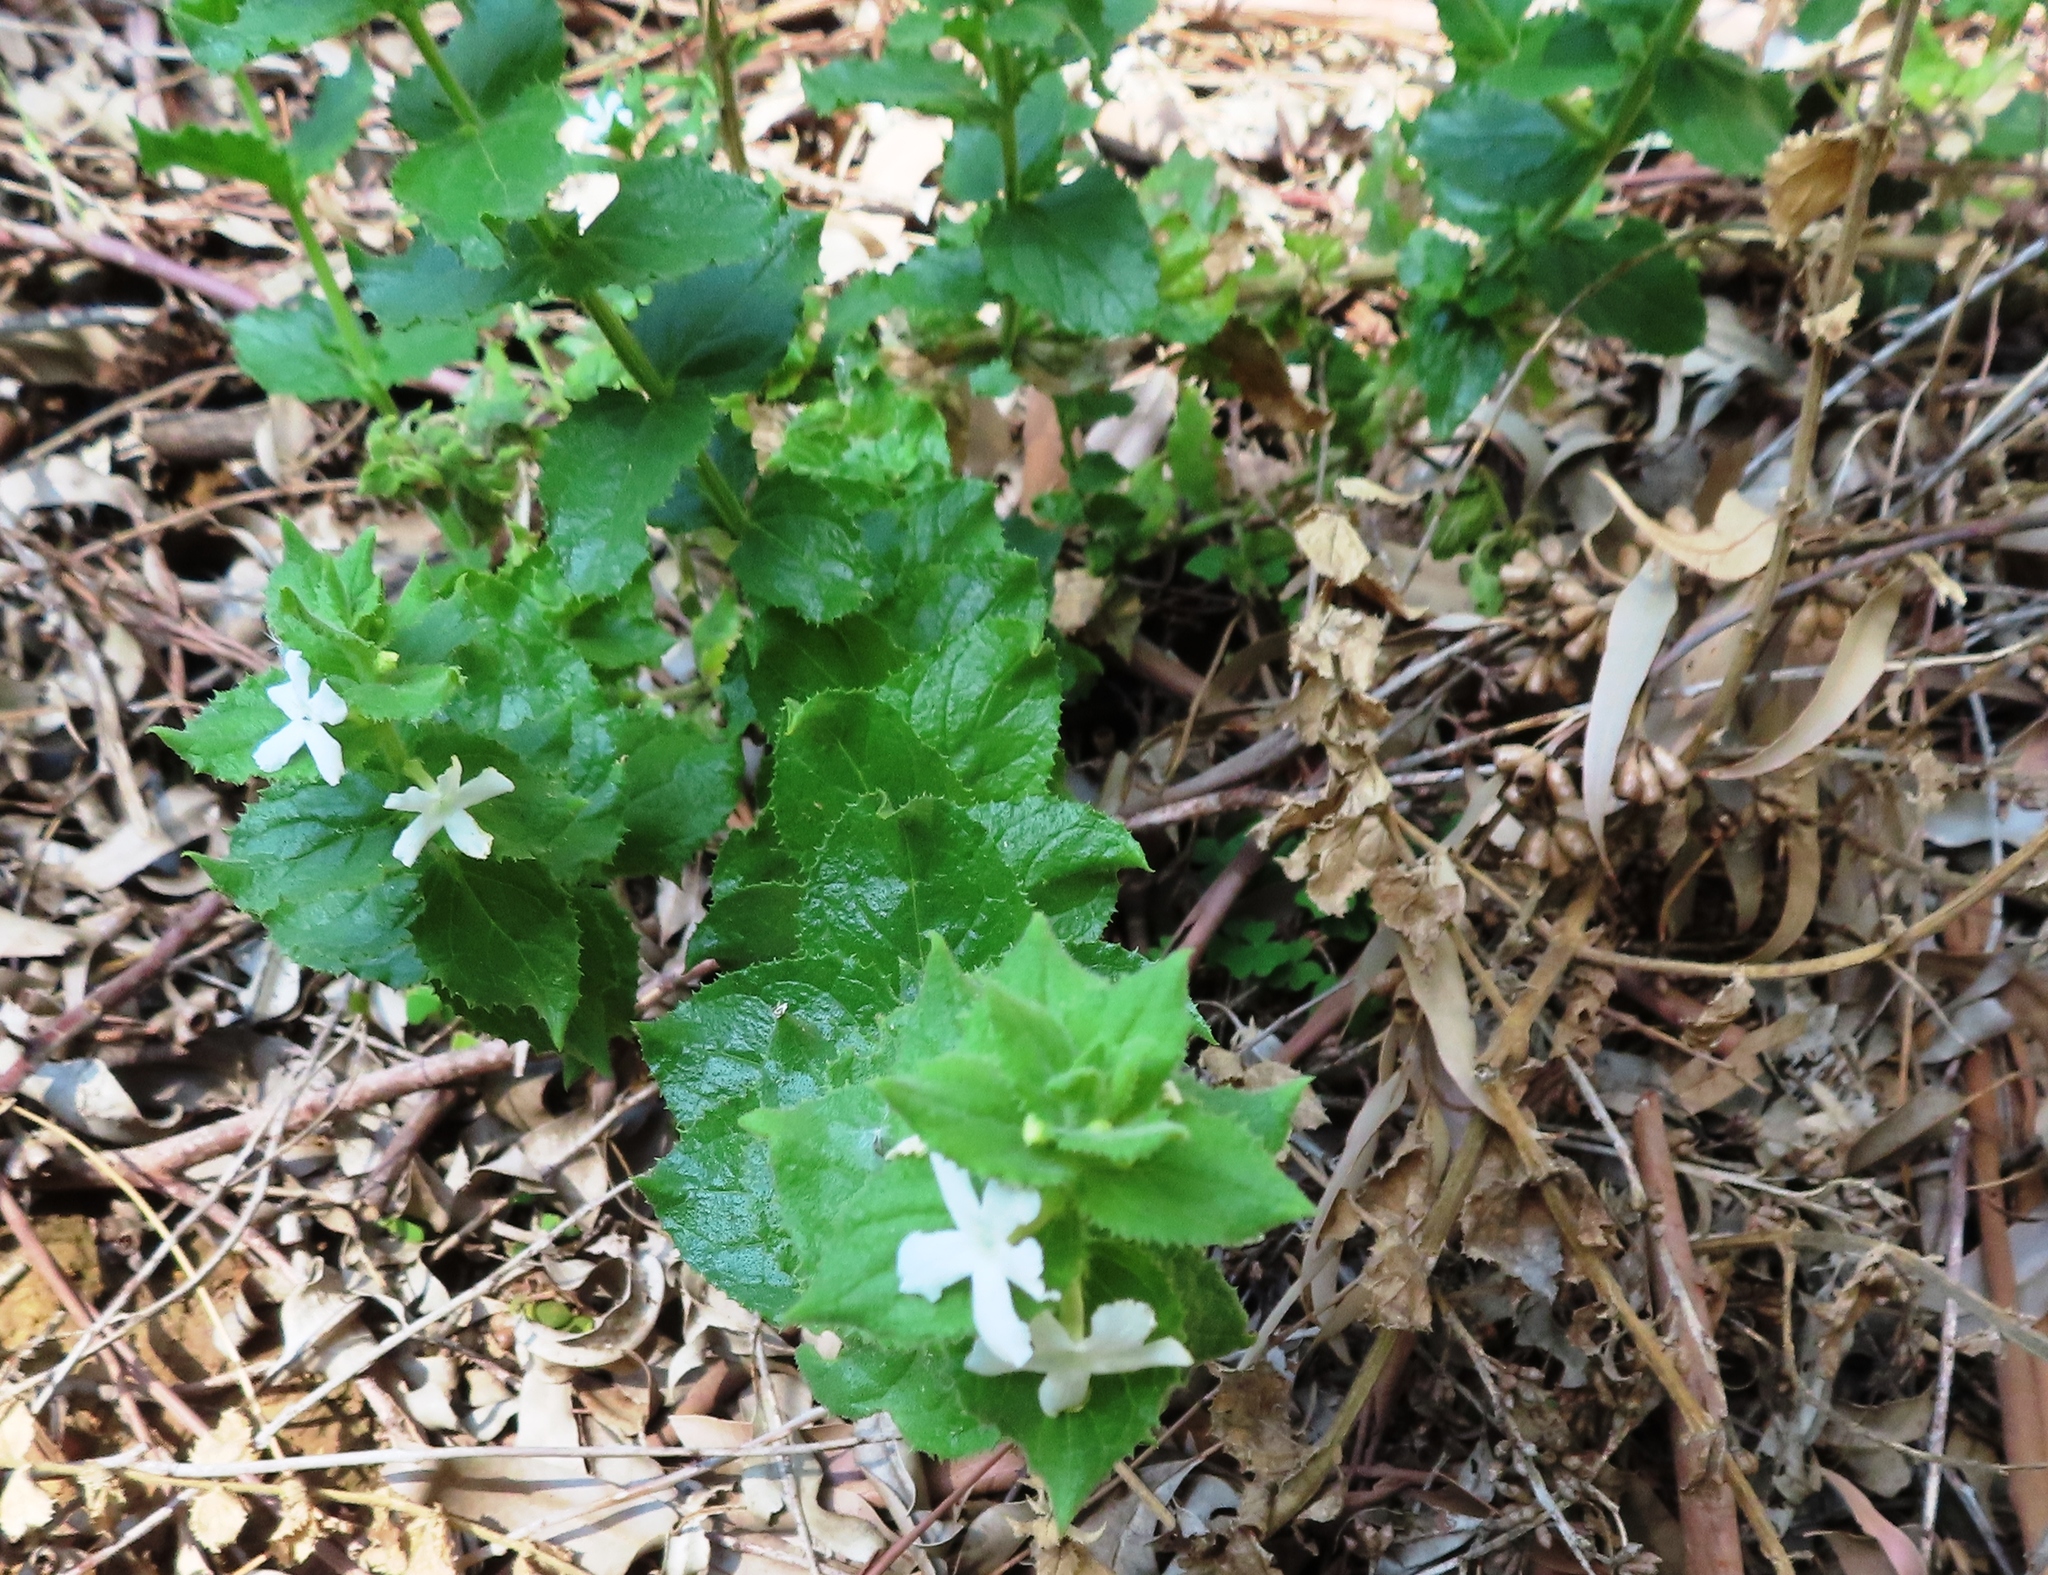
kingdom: Plantae
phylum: Tracheophyta
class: Magnoliopsida
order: Lamiales
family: Scrophulariaceae
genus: Oftia
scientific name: Oftia africana
